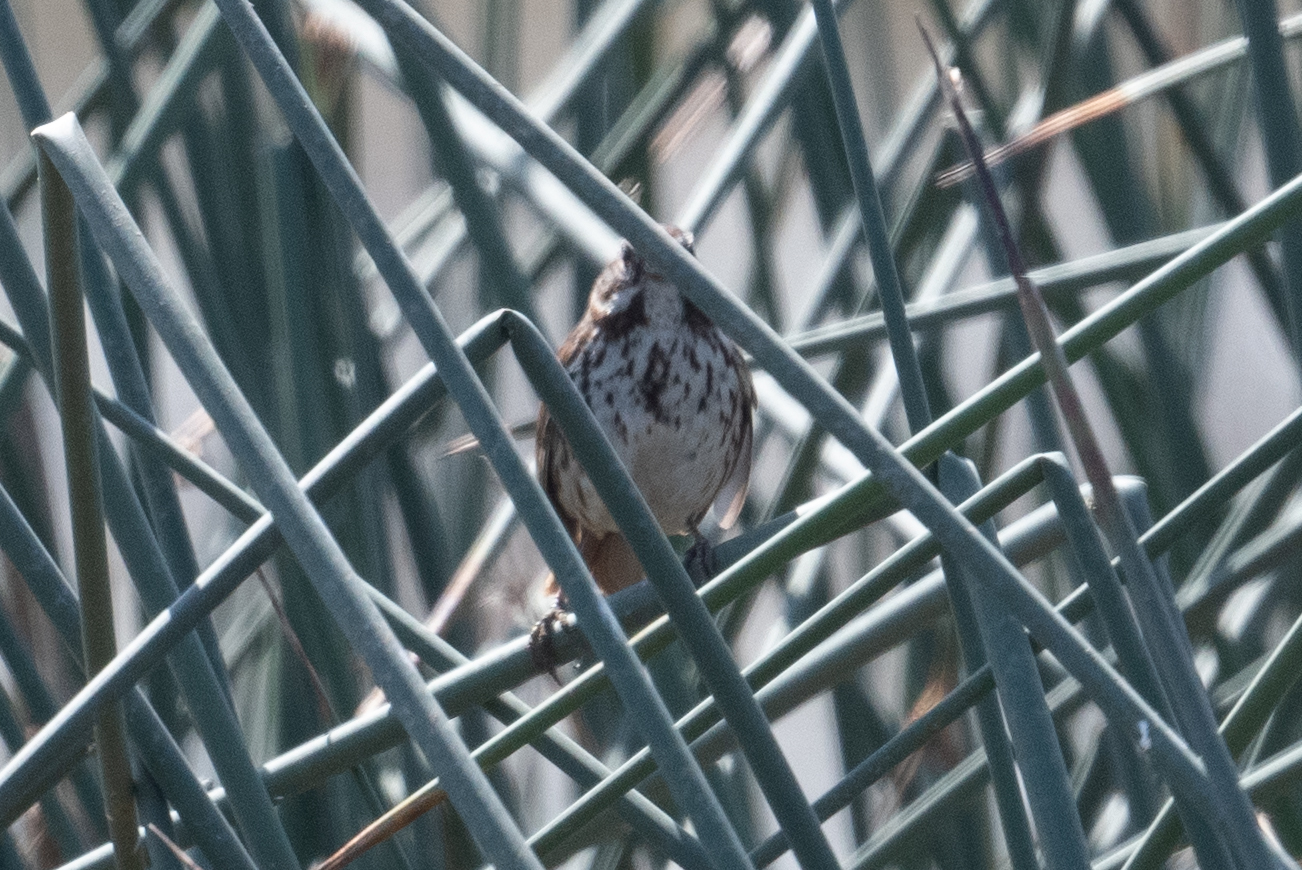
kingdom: Animalia
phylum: Chordata
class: Aves
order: Passeriformes
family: Passerellidae
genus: Melospiza
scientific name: Melospiza melodia
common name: Song sparrow
